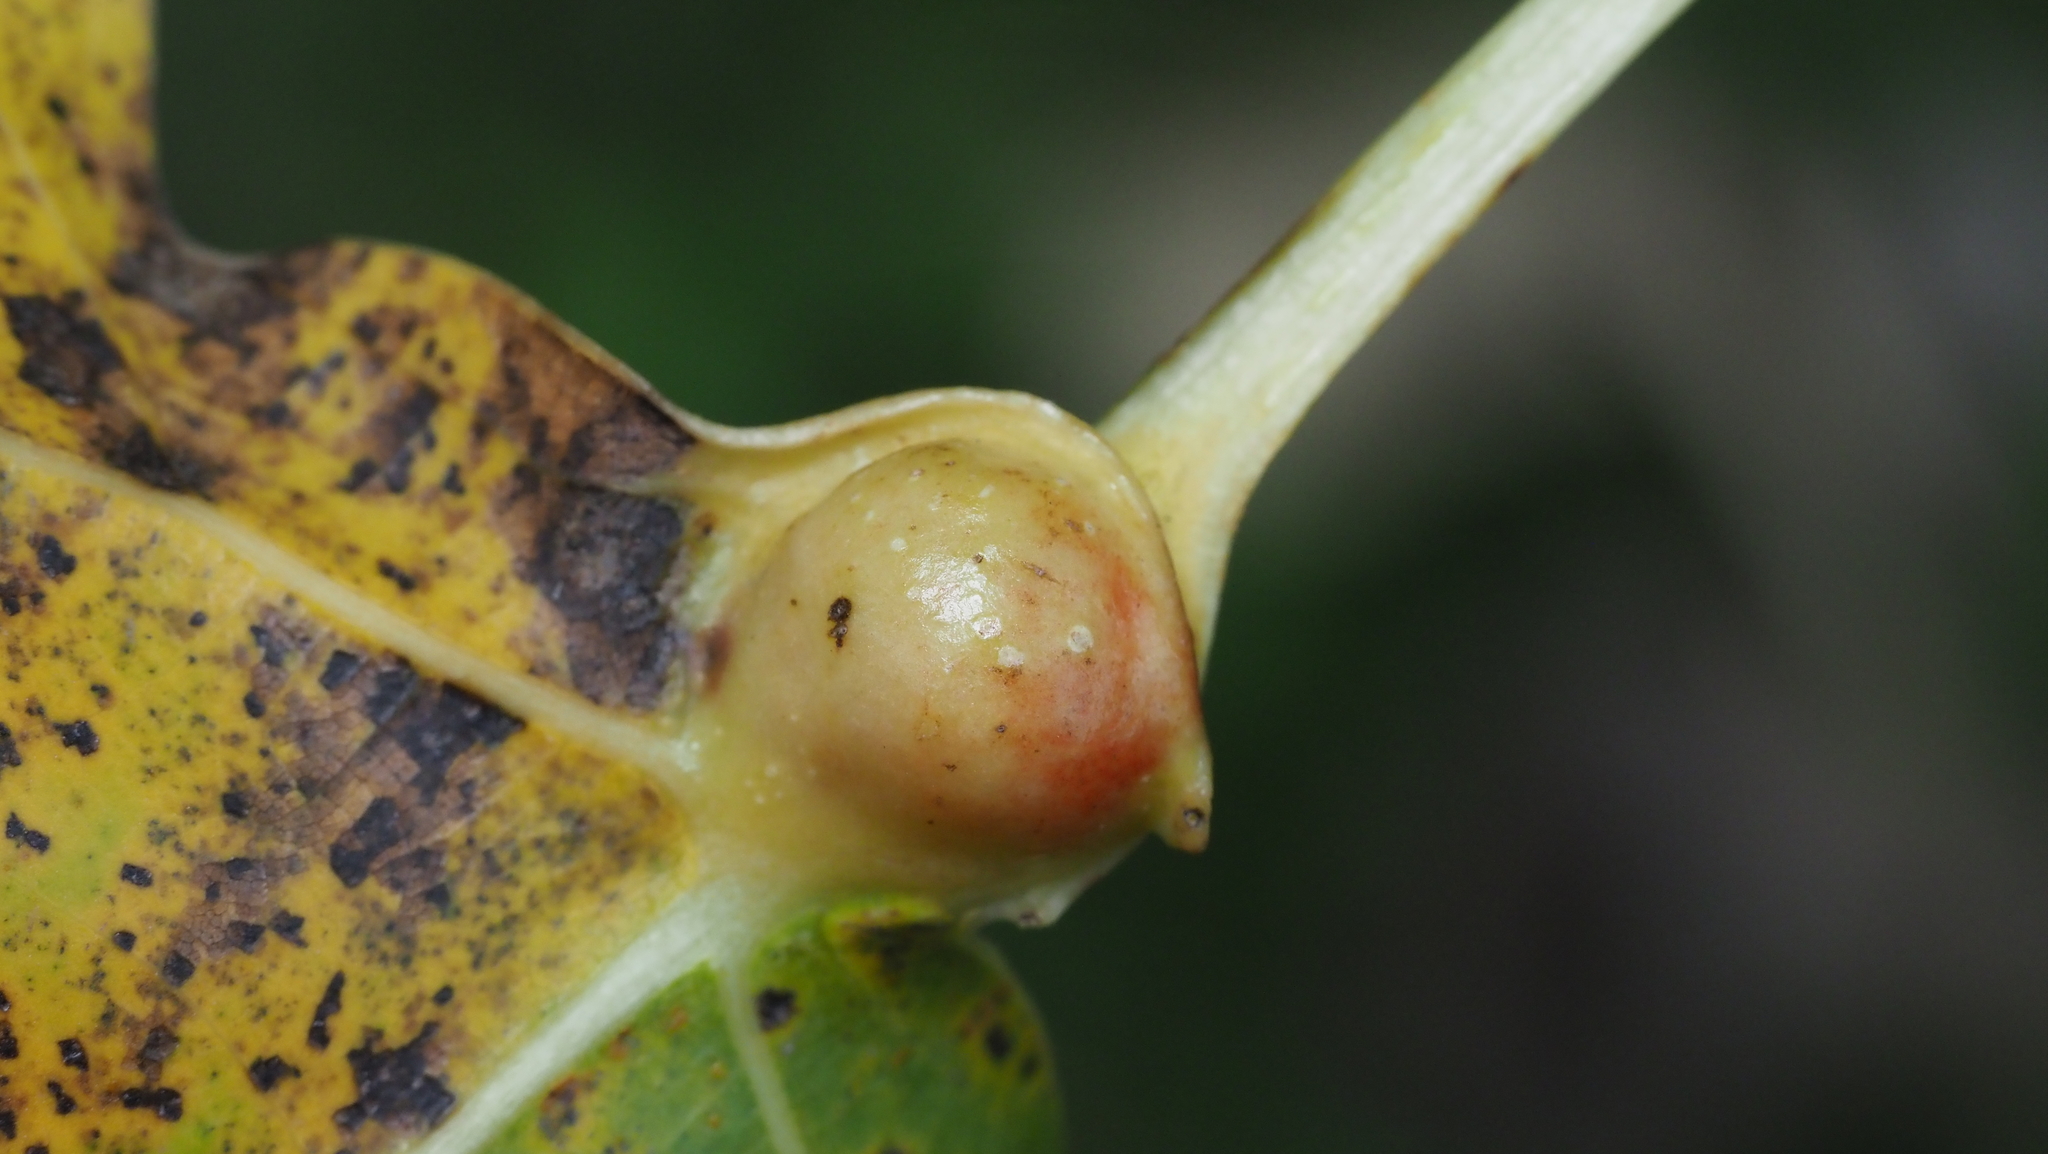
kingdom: Animalia
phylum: Arthropoda
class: Insecta
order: Hemiptera
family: Aphididae
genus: Pemphigus
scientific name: Pemphigus populicaulis
